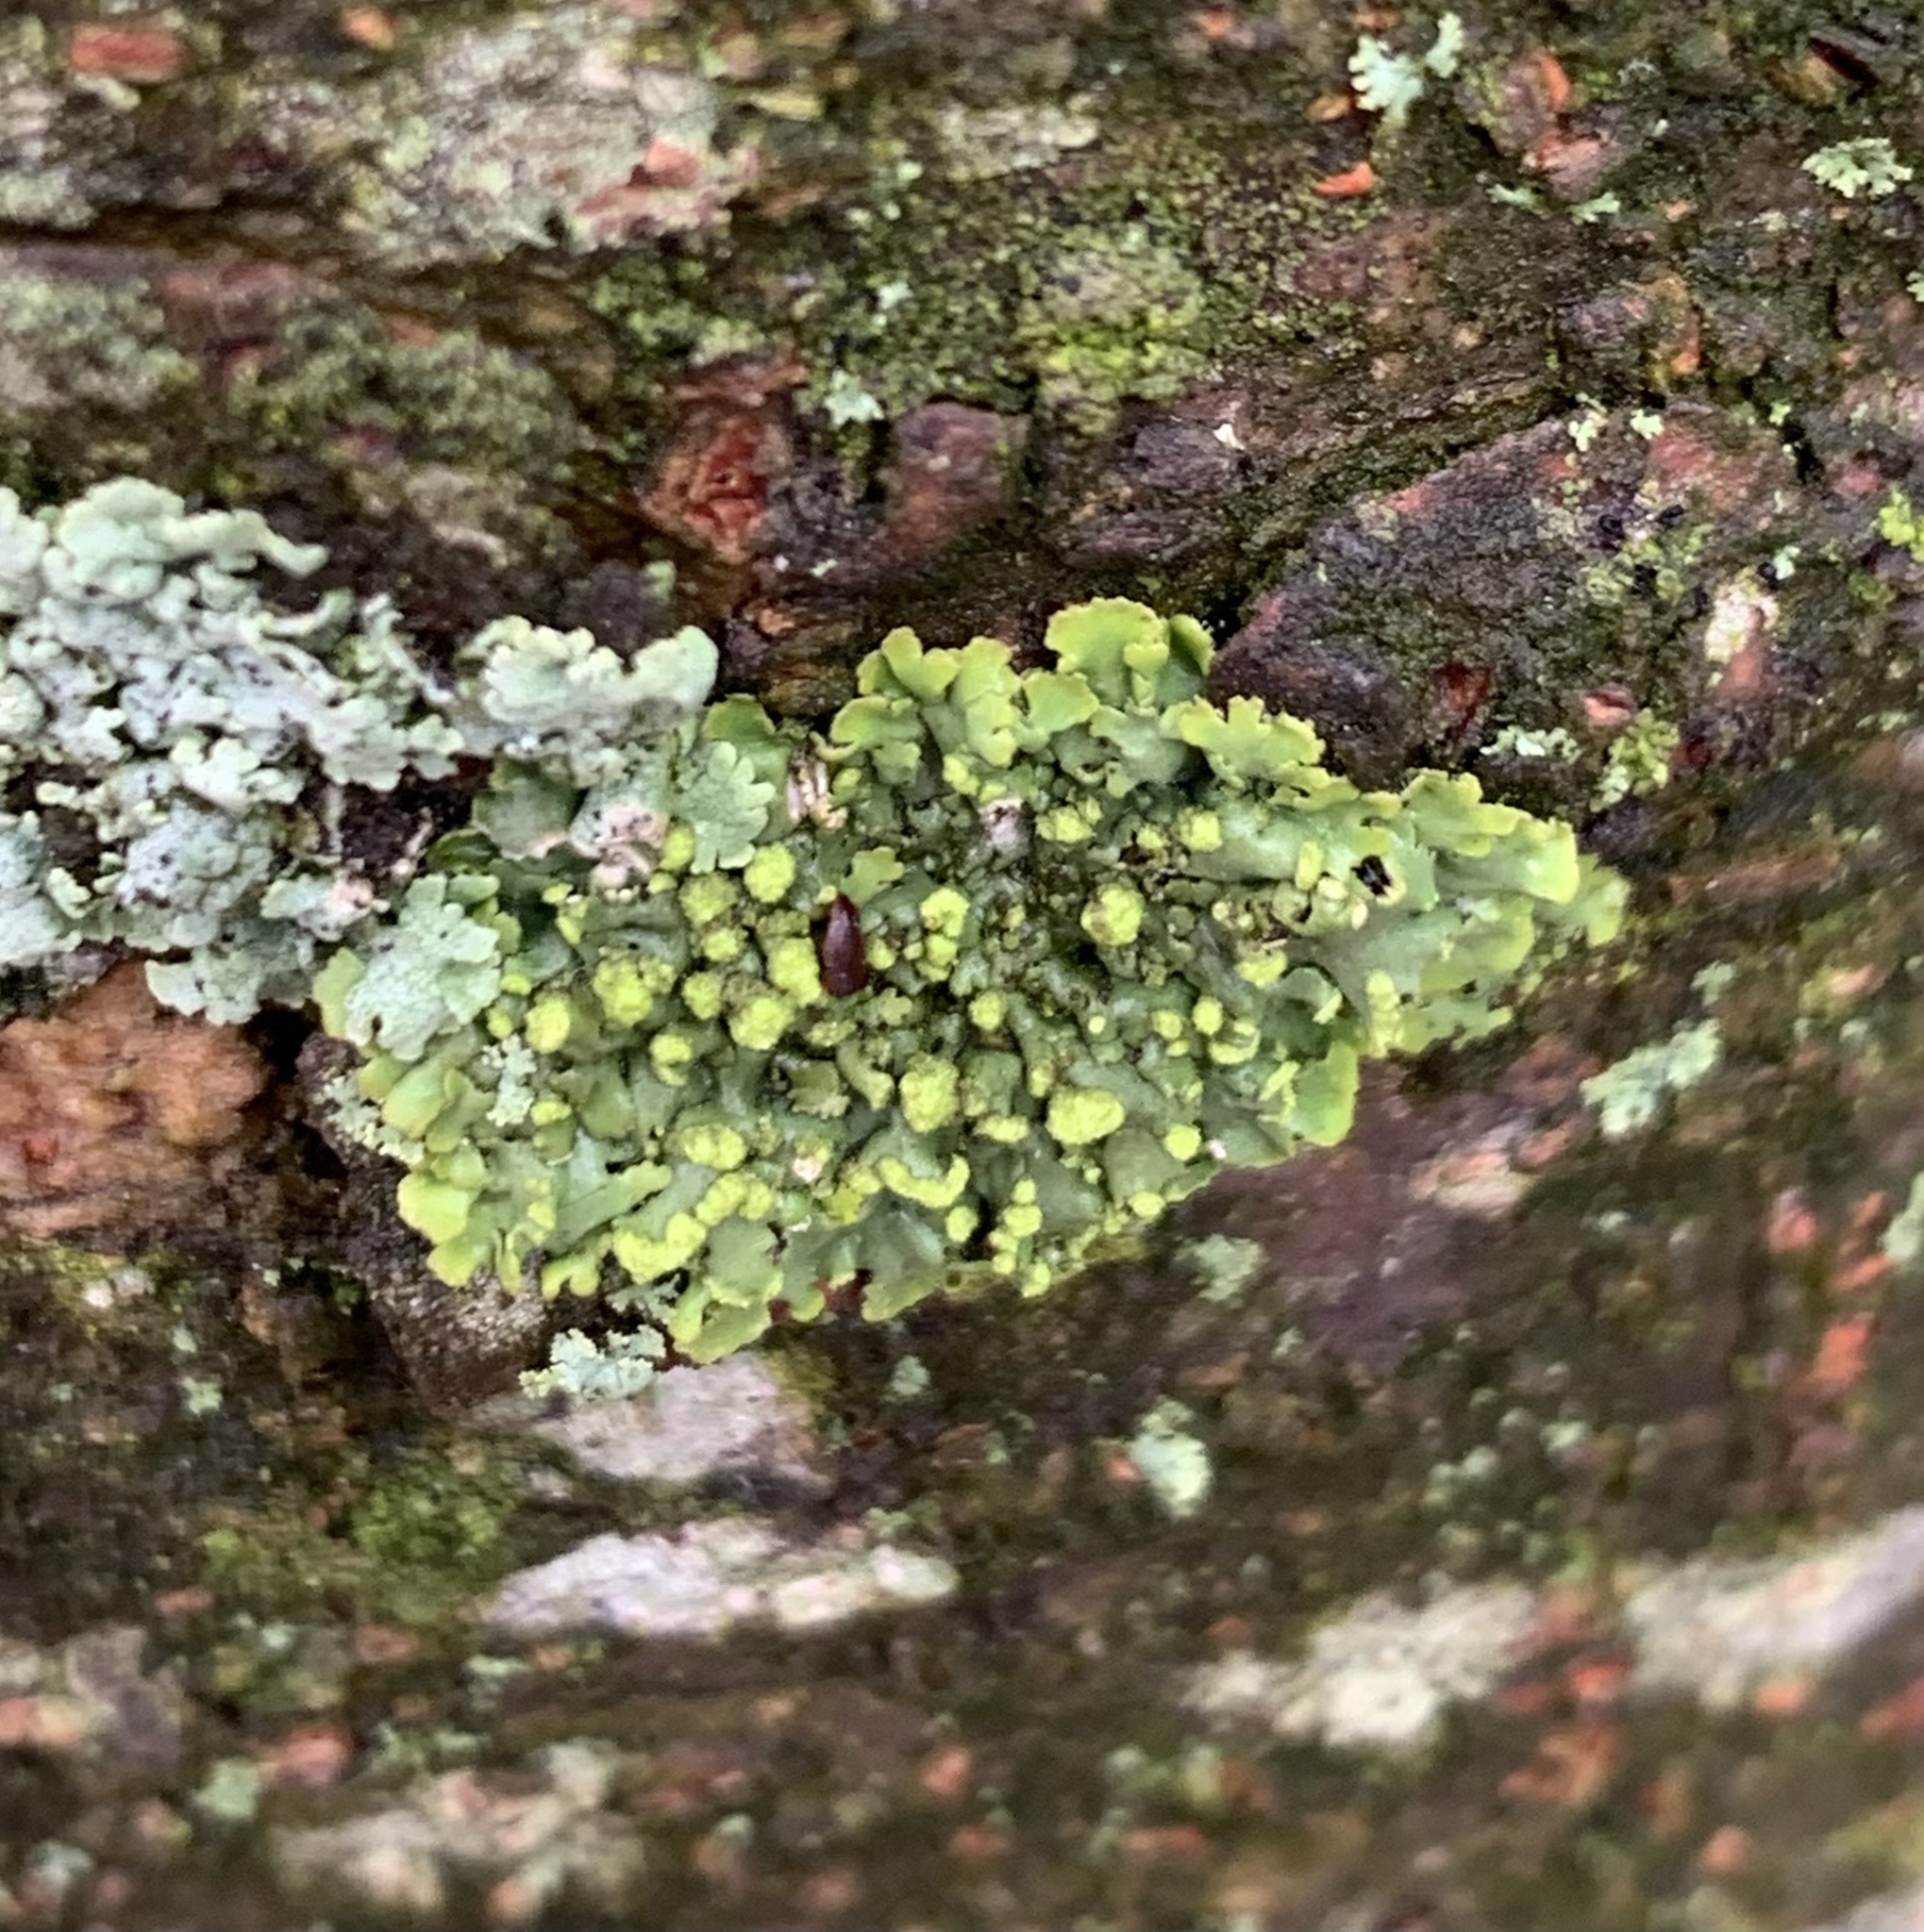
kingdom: Fungi
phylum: Ascomycota
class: Lecanoromycetes
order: Caliciales
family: Physciaceae
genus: Phaeophyscia
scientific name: Phaeophyscia pusilloides
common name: Pom-pom shadow lichen
